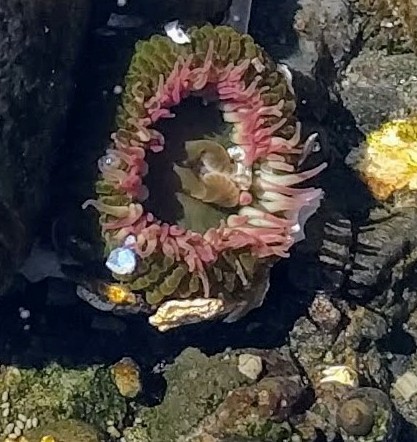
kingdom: Animalia
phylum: Cnidaria
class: Anthozoa
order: Actiniaria
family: Actiniidae
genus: Anthopleura
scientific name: Anthopleura elegantissima
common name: Clonal anemone
